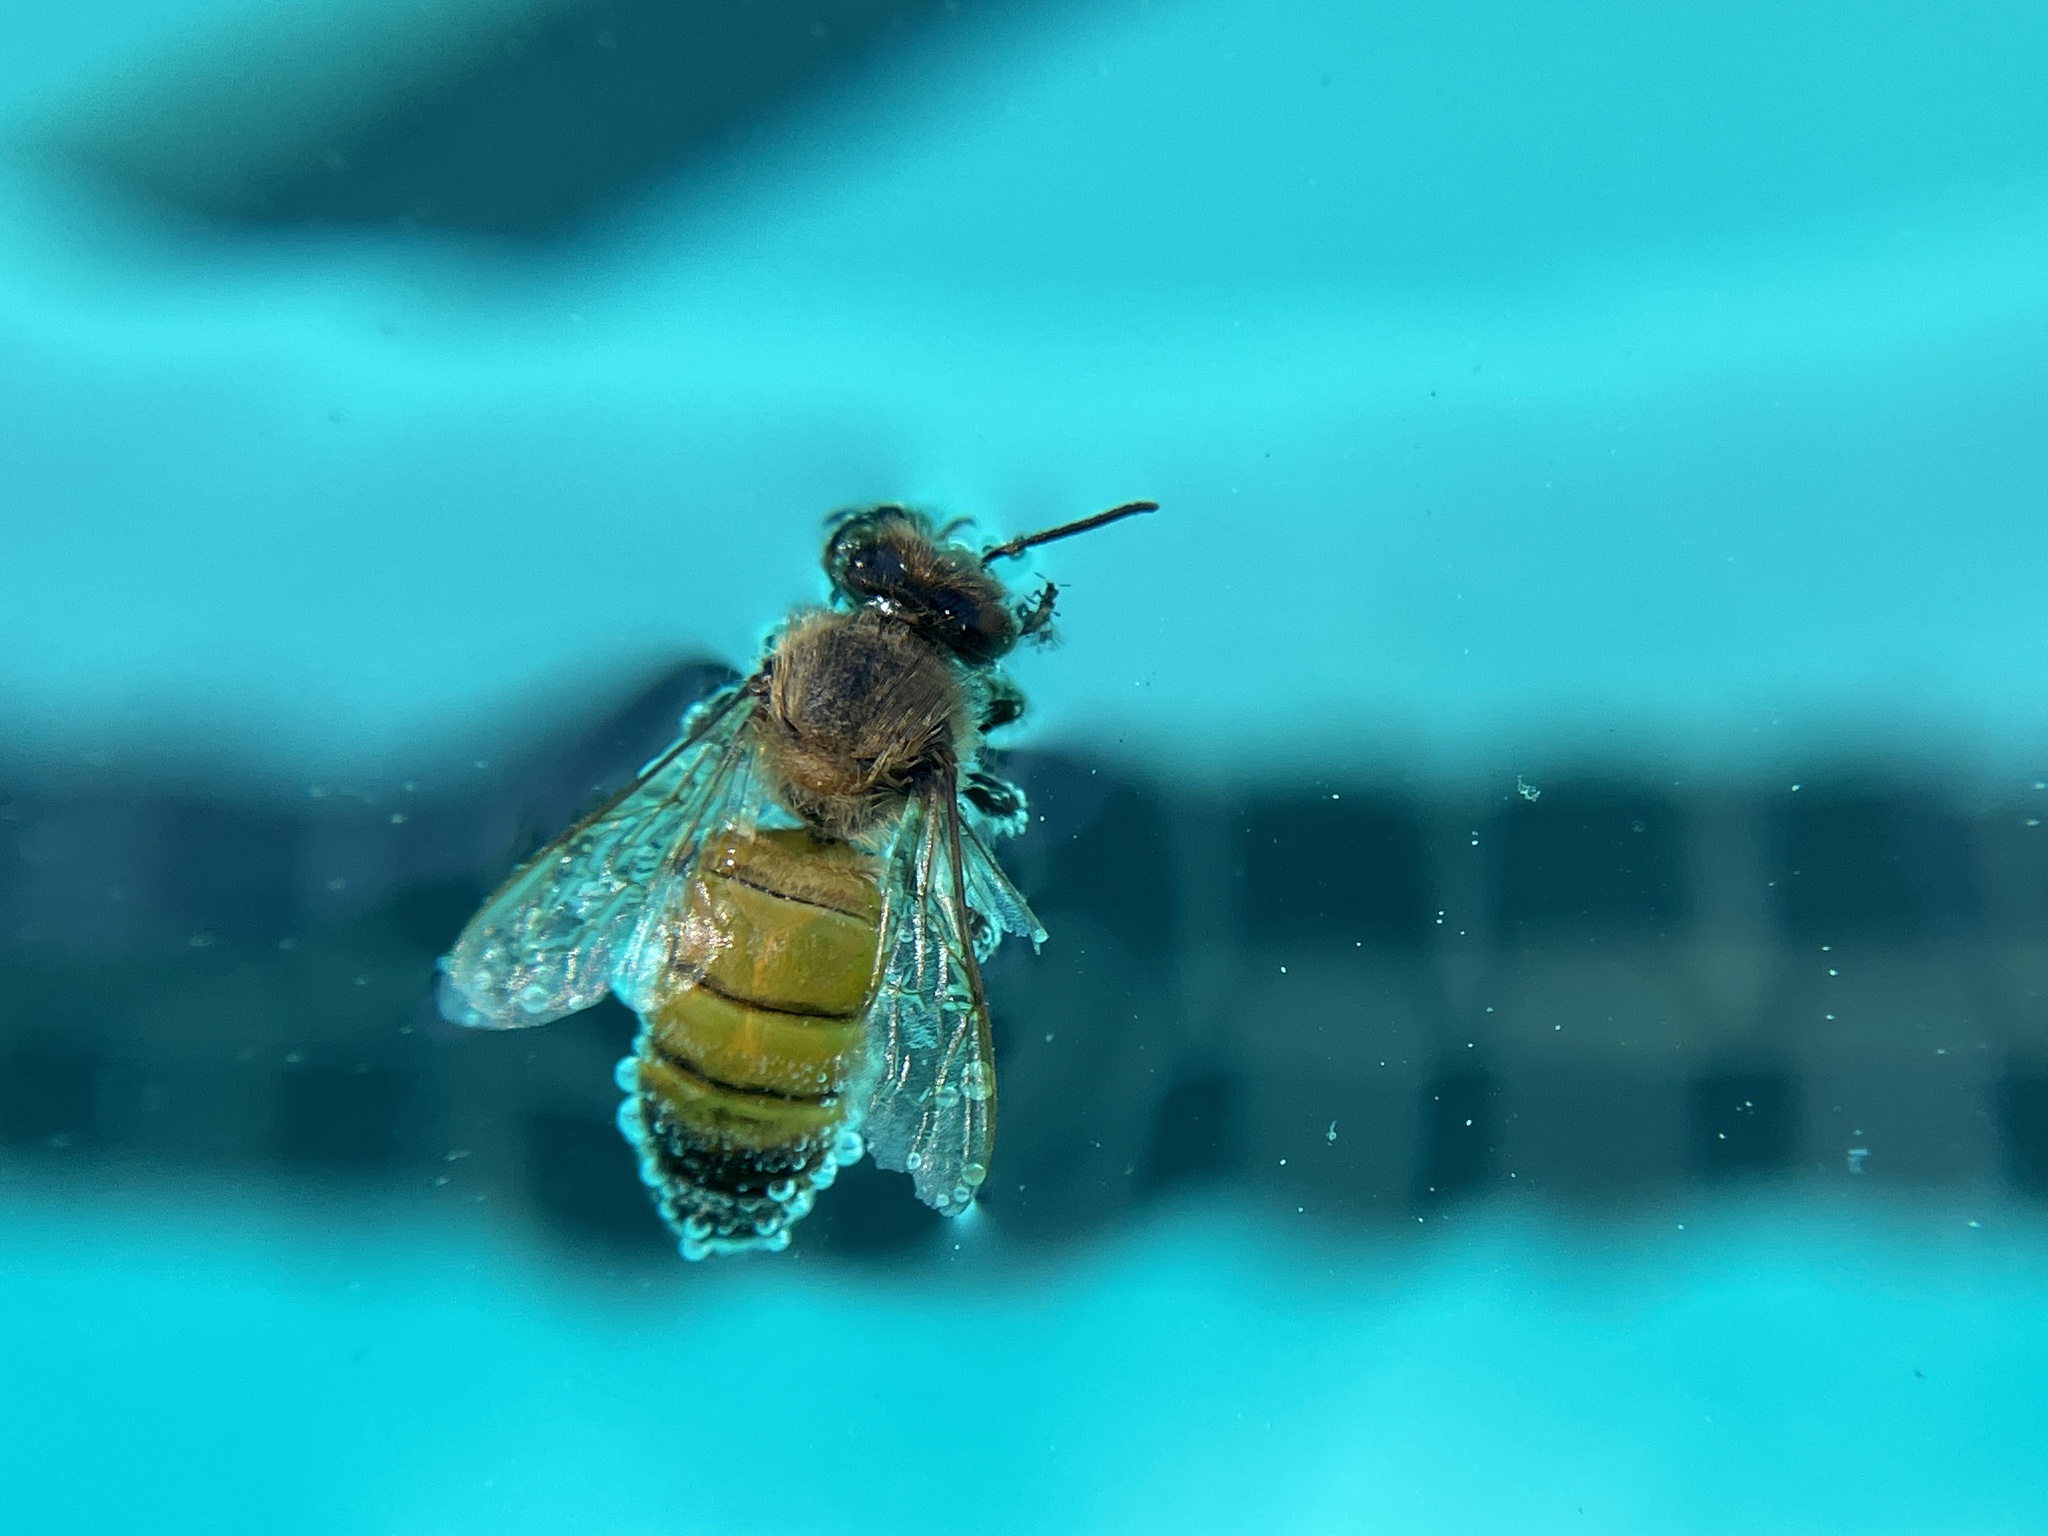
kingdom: Animalia
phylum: Arthropoda
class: Insecta
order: Hymenoptera
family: Apidae
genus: Apis
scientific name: Apis mellifera
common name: Honey bee
